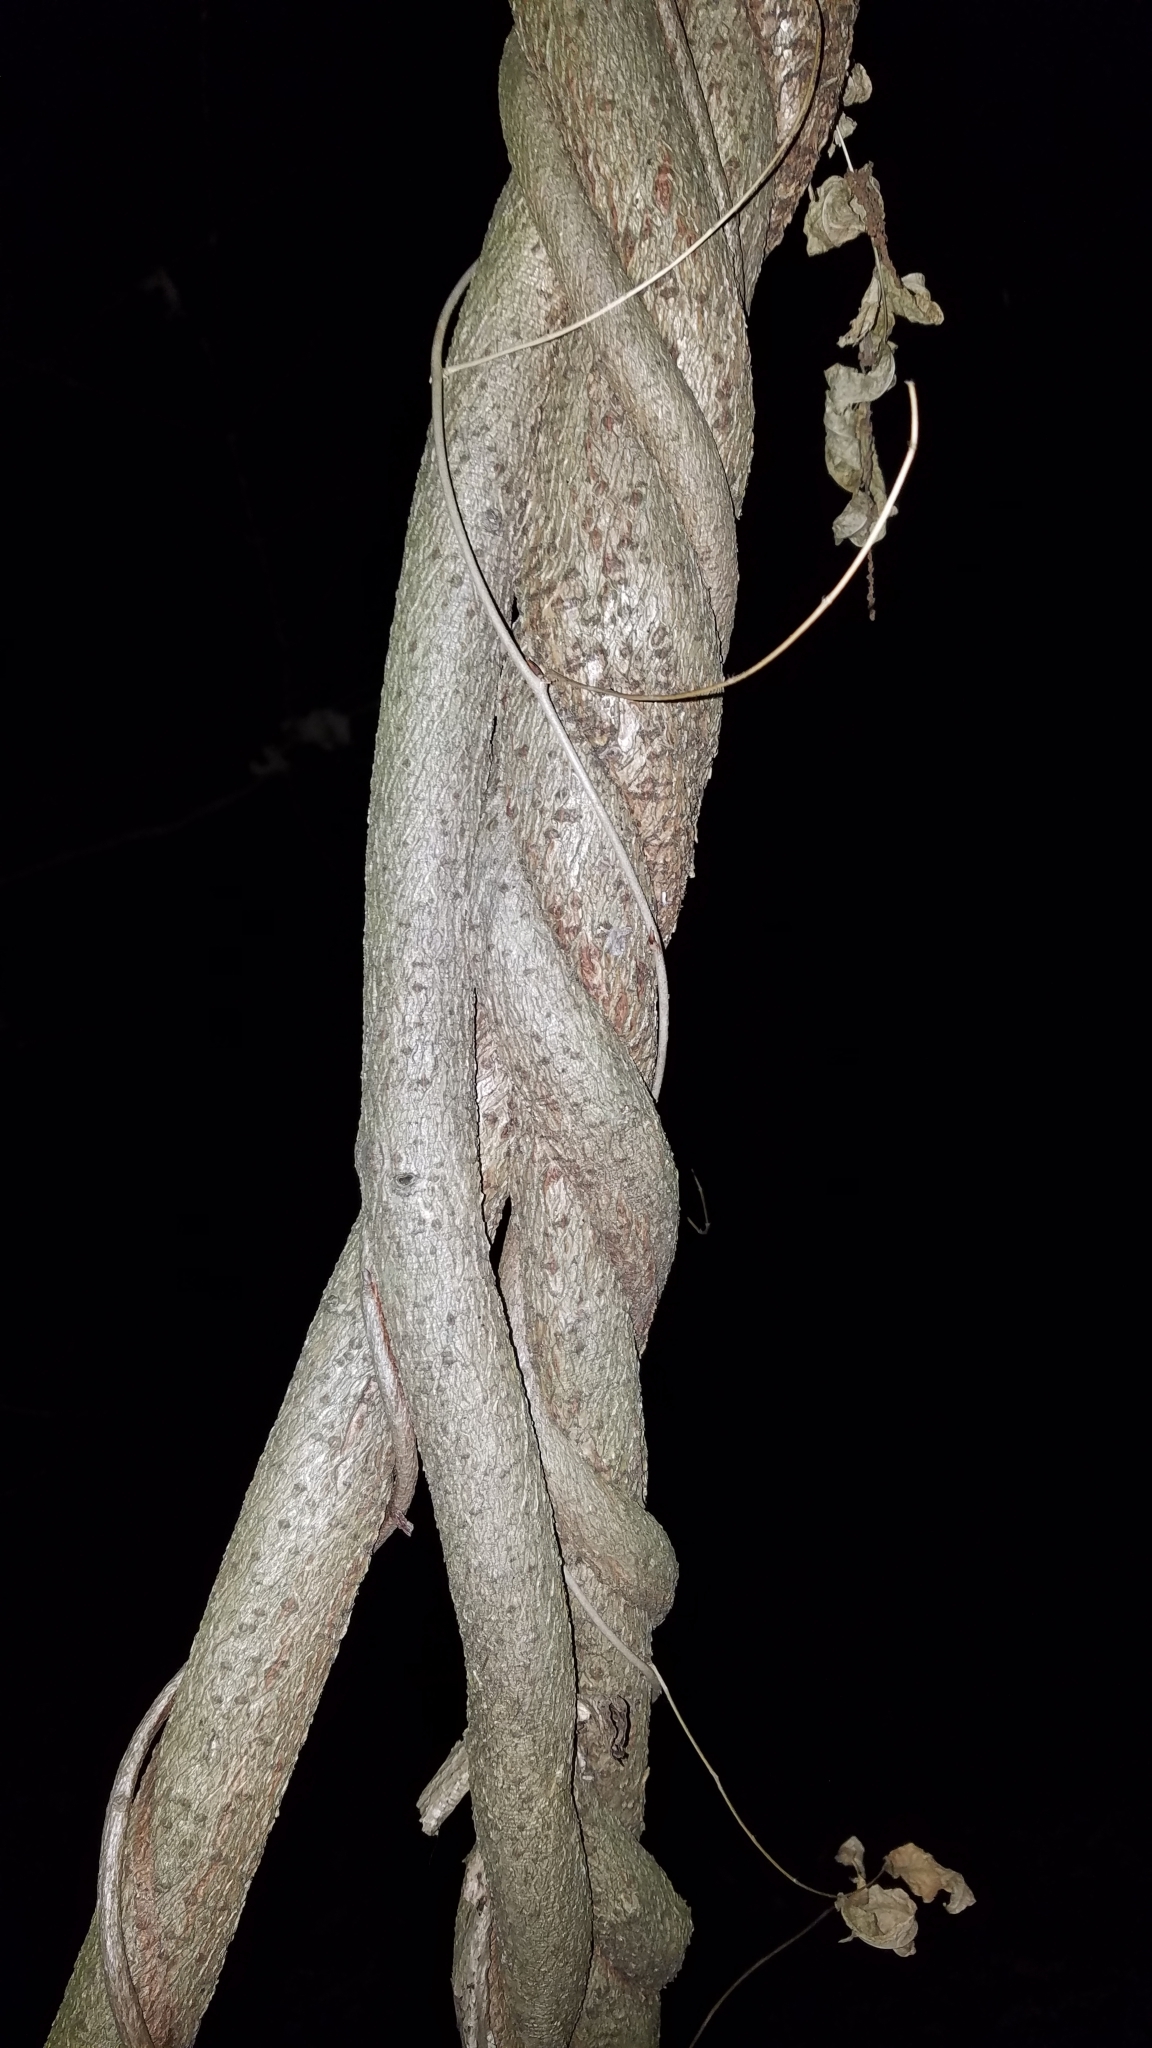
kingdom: Plantae
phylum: Tracheophyta
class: Magnoliopsida
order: Fabales
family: Fabaceae
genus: Wisteria
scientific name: Wisteria floribunda
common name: Japanese wisteria
